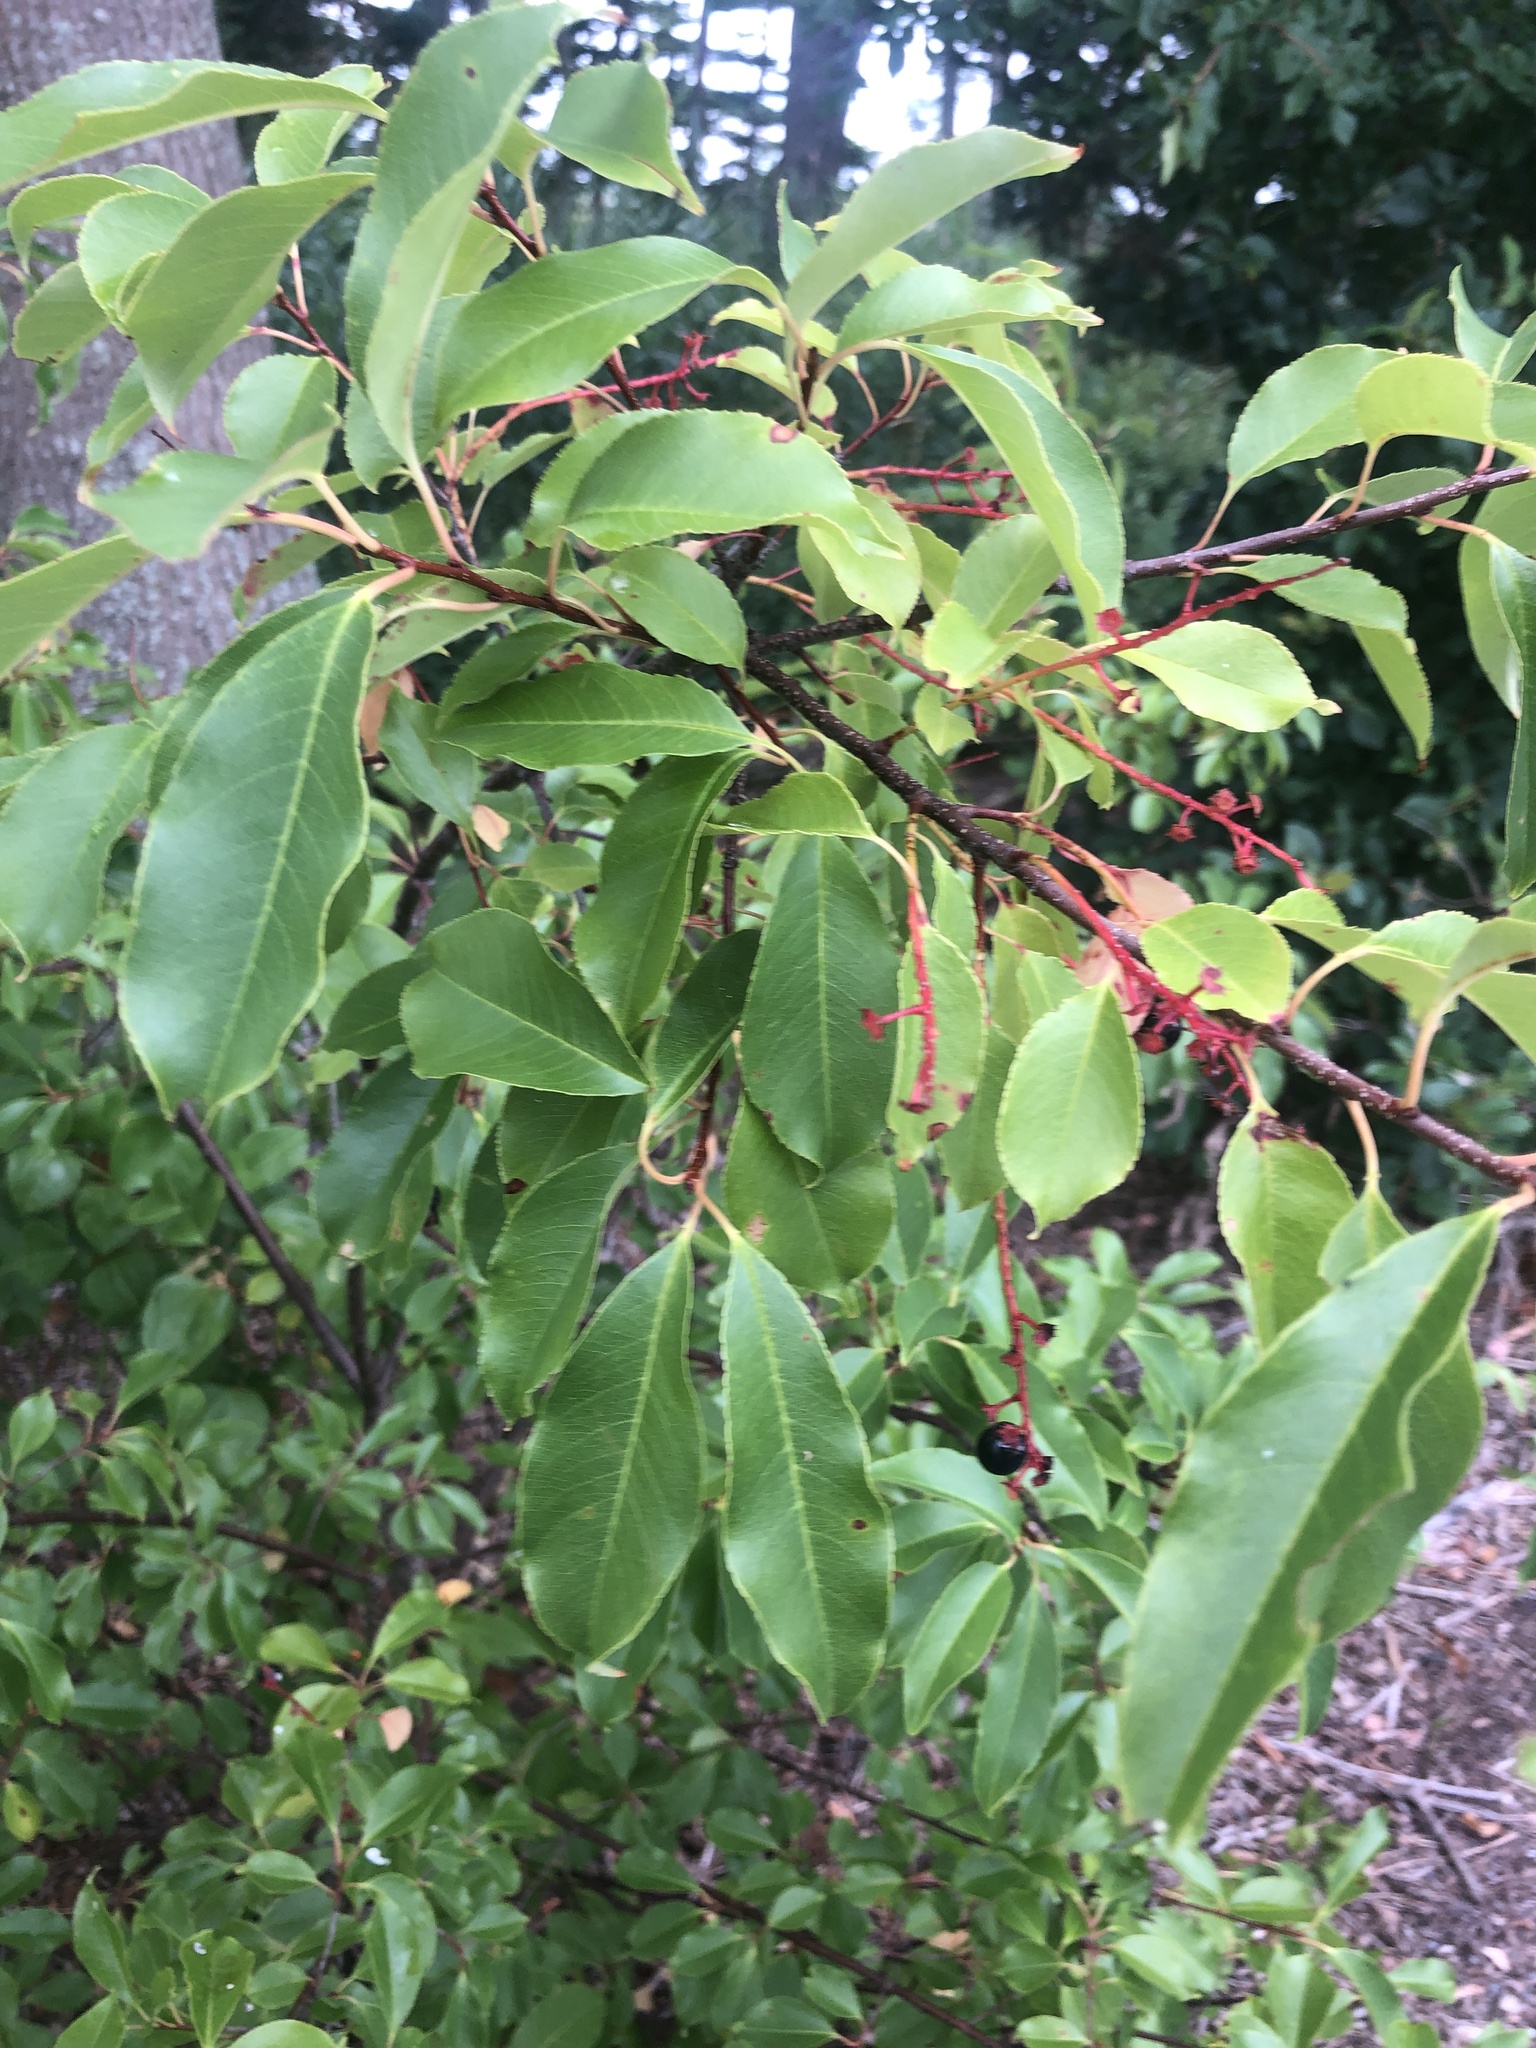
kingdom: Plantae
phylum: Tracheophyta
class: Magnoliopsida
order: Rosales
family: Rosaceae
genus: Prunus
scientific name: Prunus serotina
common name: Black cherry
